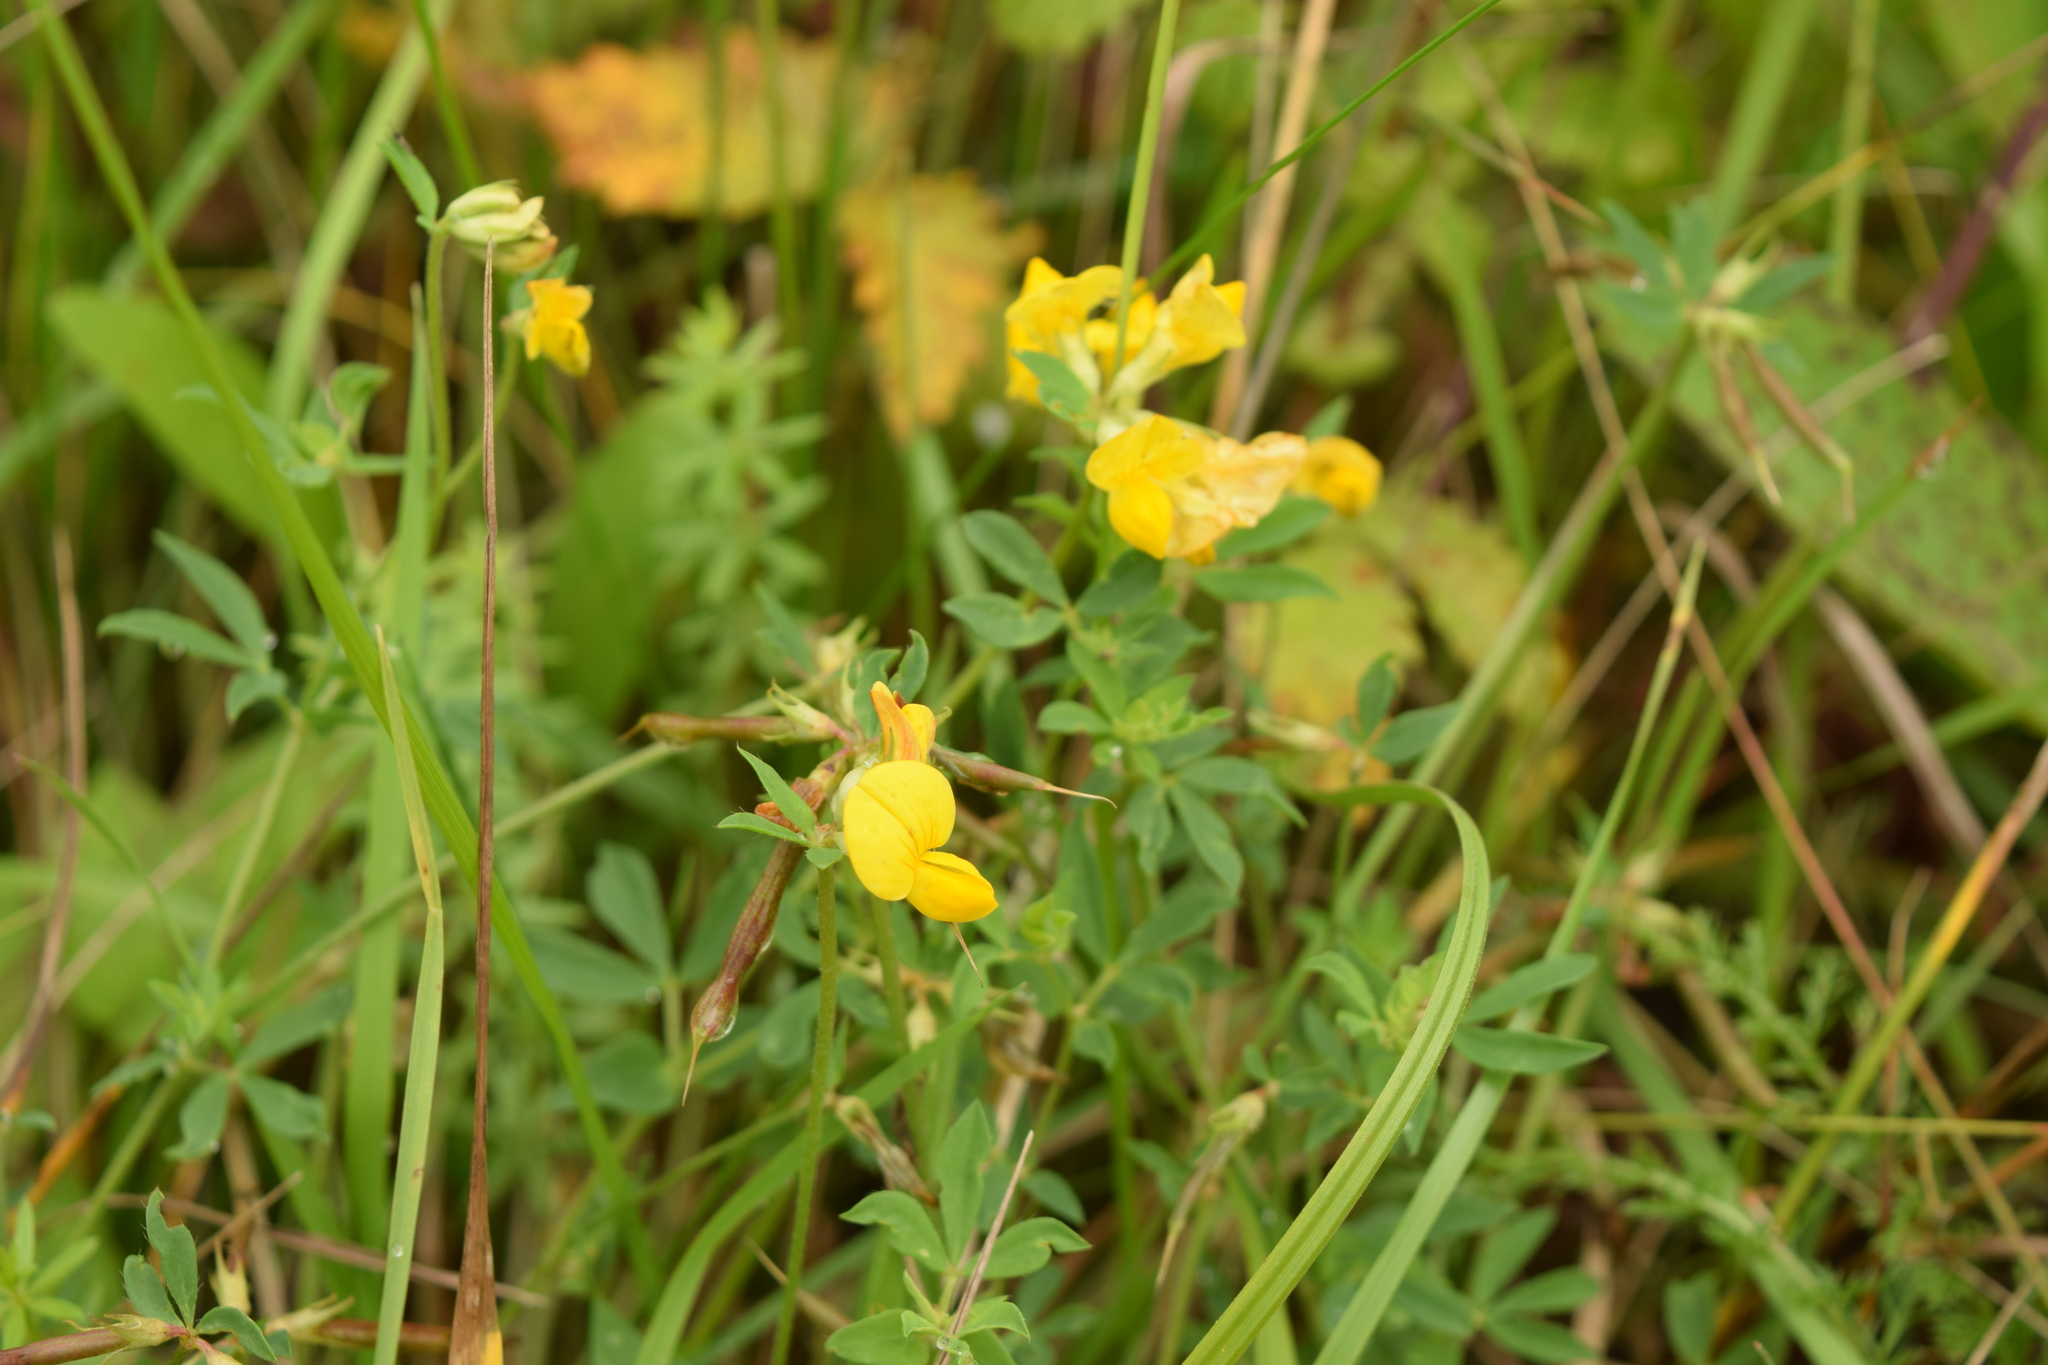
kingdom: Plantae
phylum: Tracheophyta
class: Magnoliopsida
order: Fabales
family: Fabaceae
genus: Lotus
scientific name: Lotus corniculatus
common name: Common bird's-foot-trefoil
